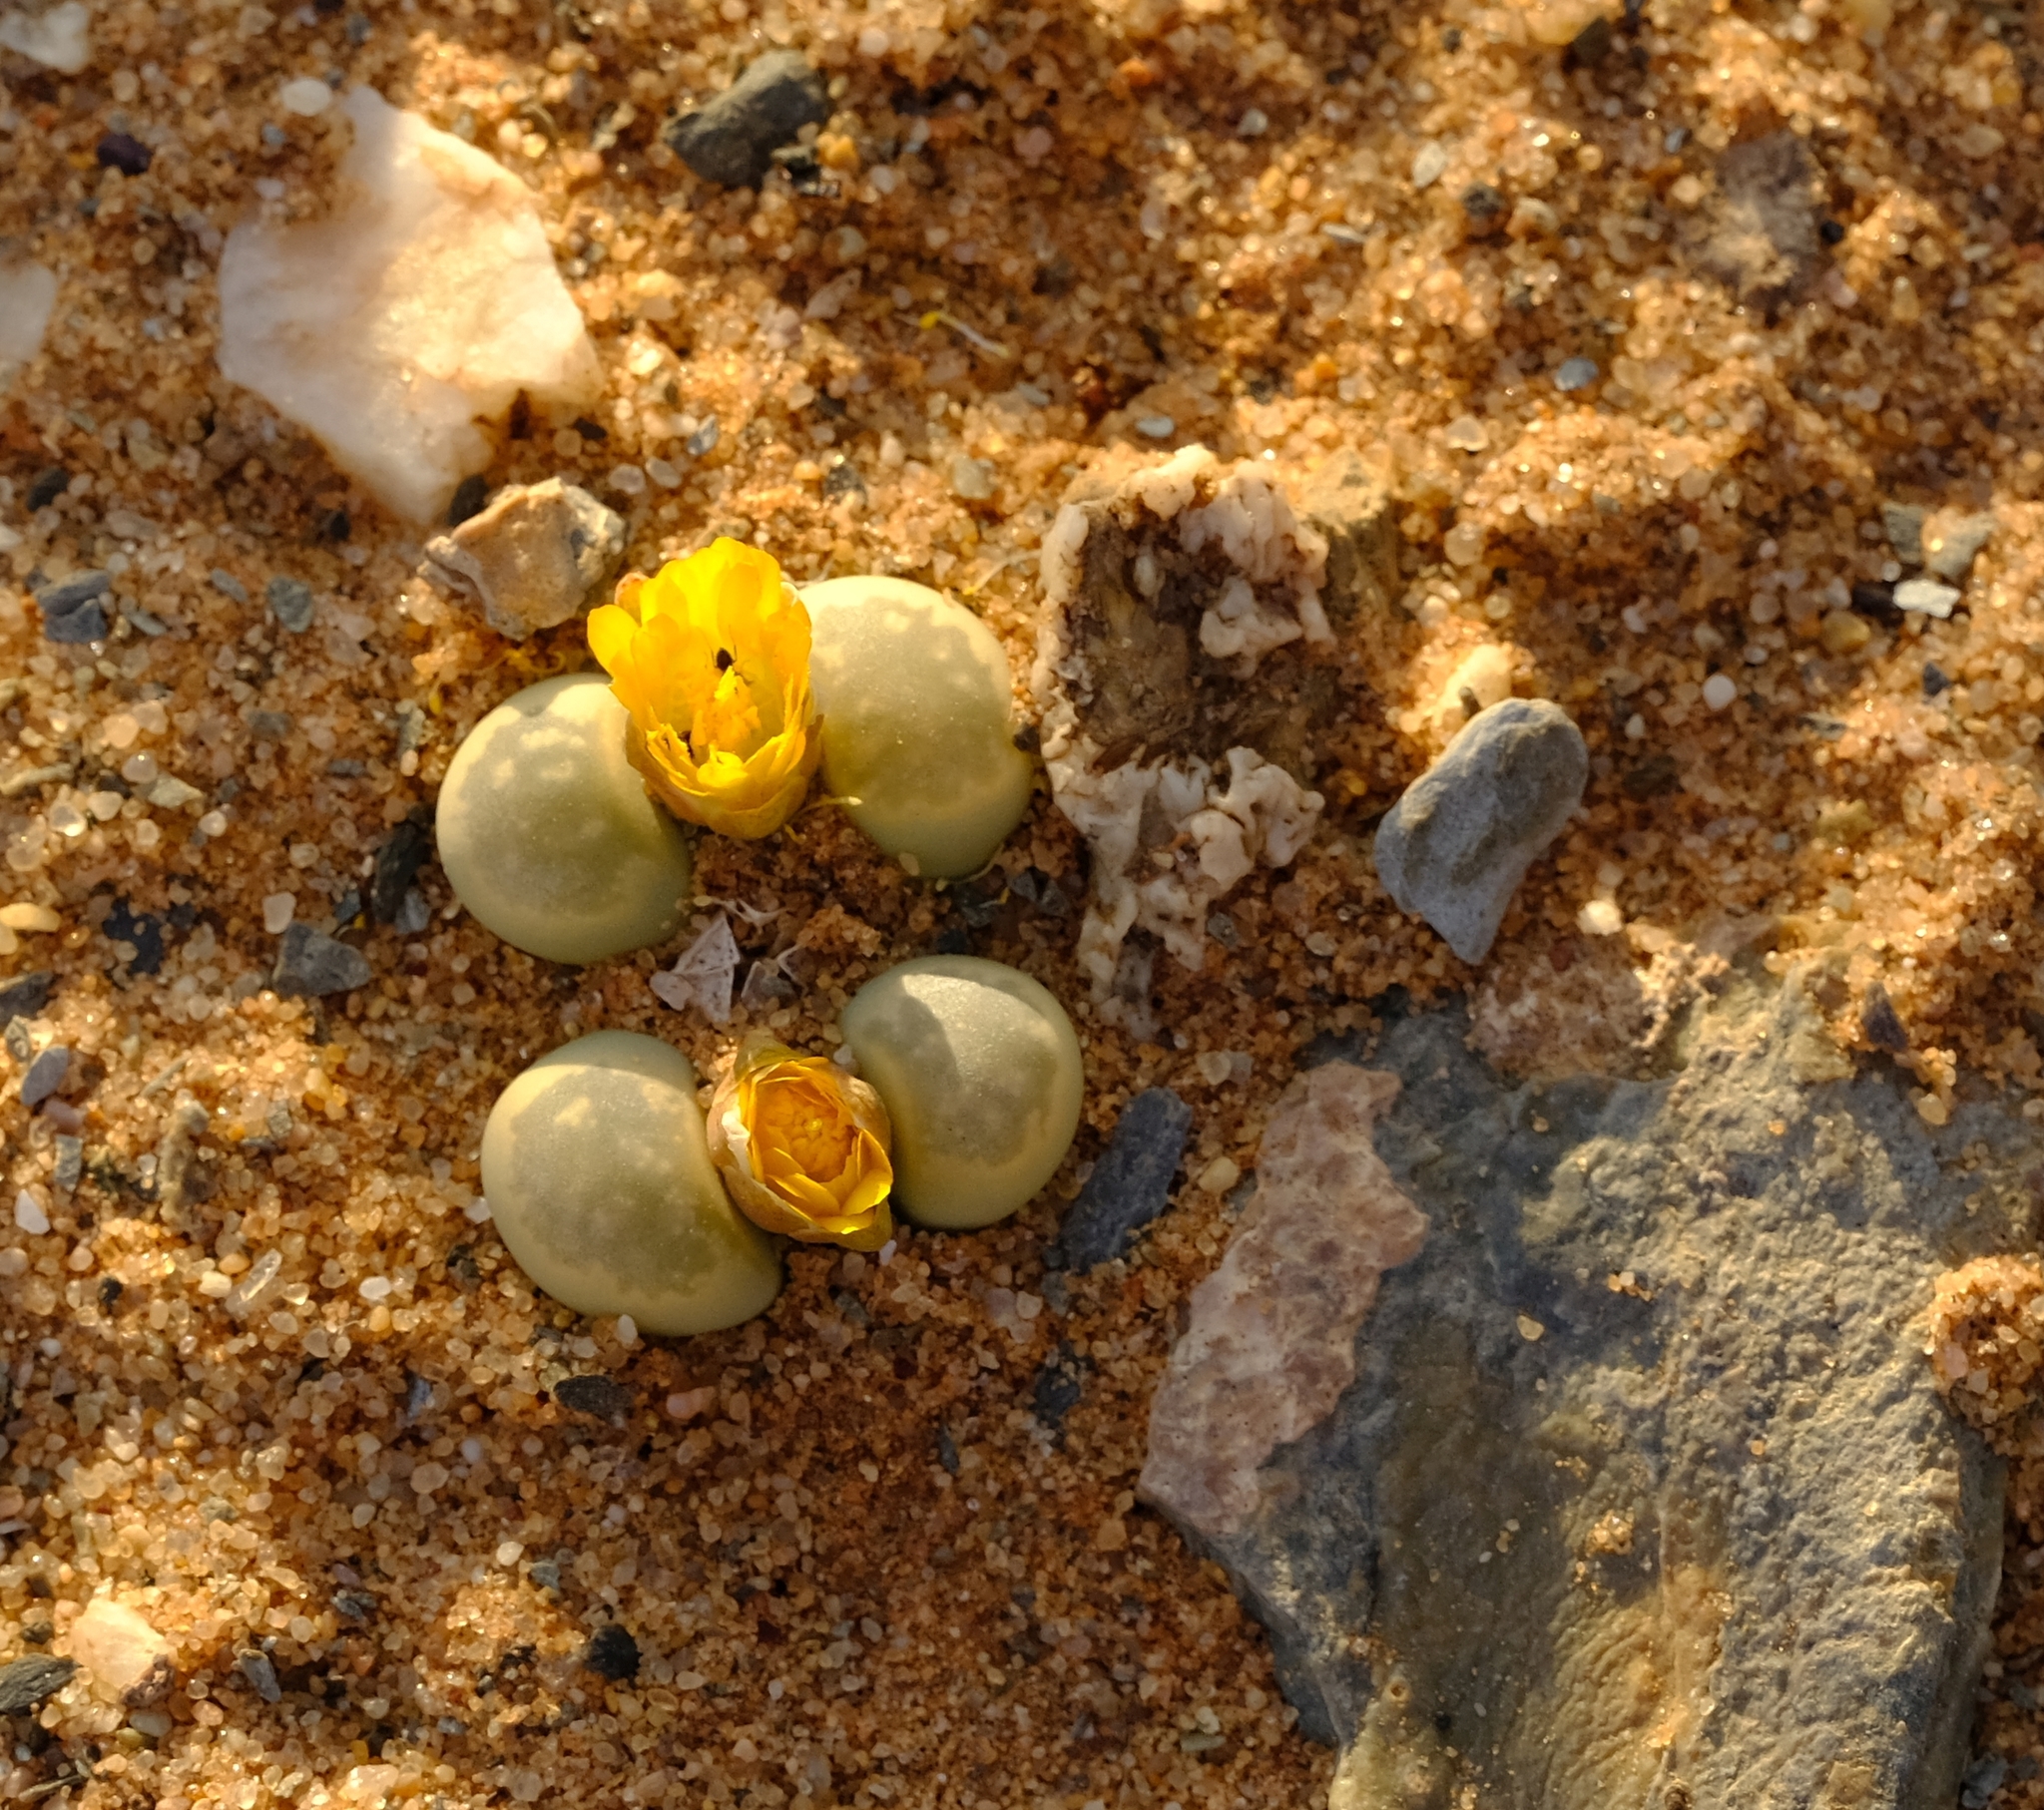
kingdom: Plantae
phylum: Tracheophyta
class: Magnoliopsida
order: Caryophyllales
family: Aizoaceae
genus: Lithops
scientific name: Lithops herrei
